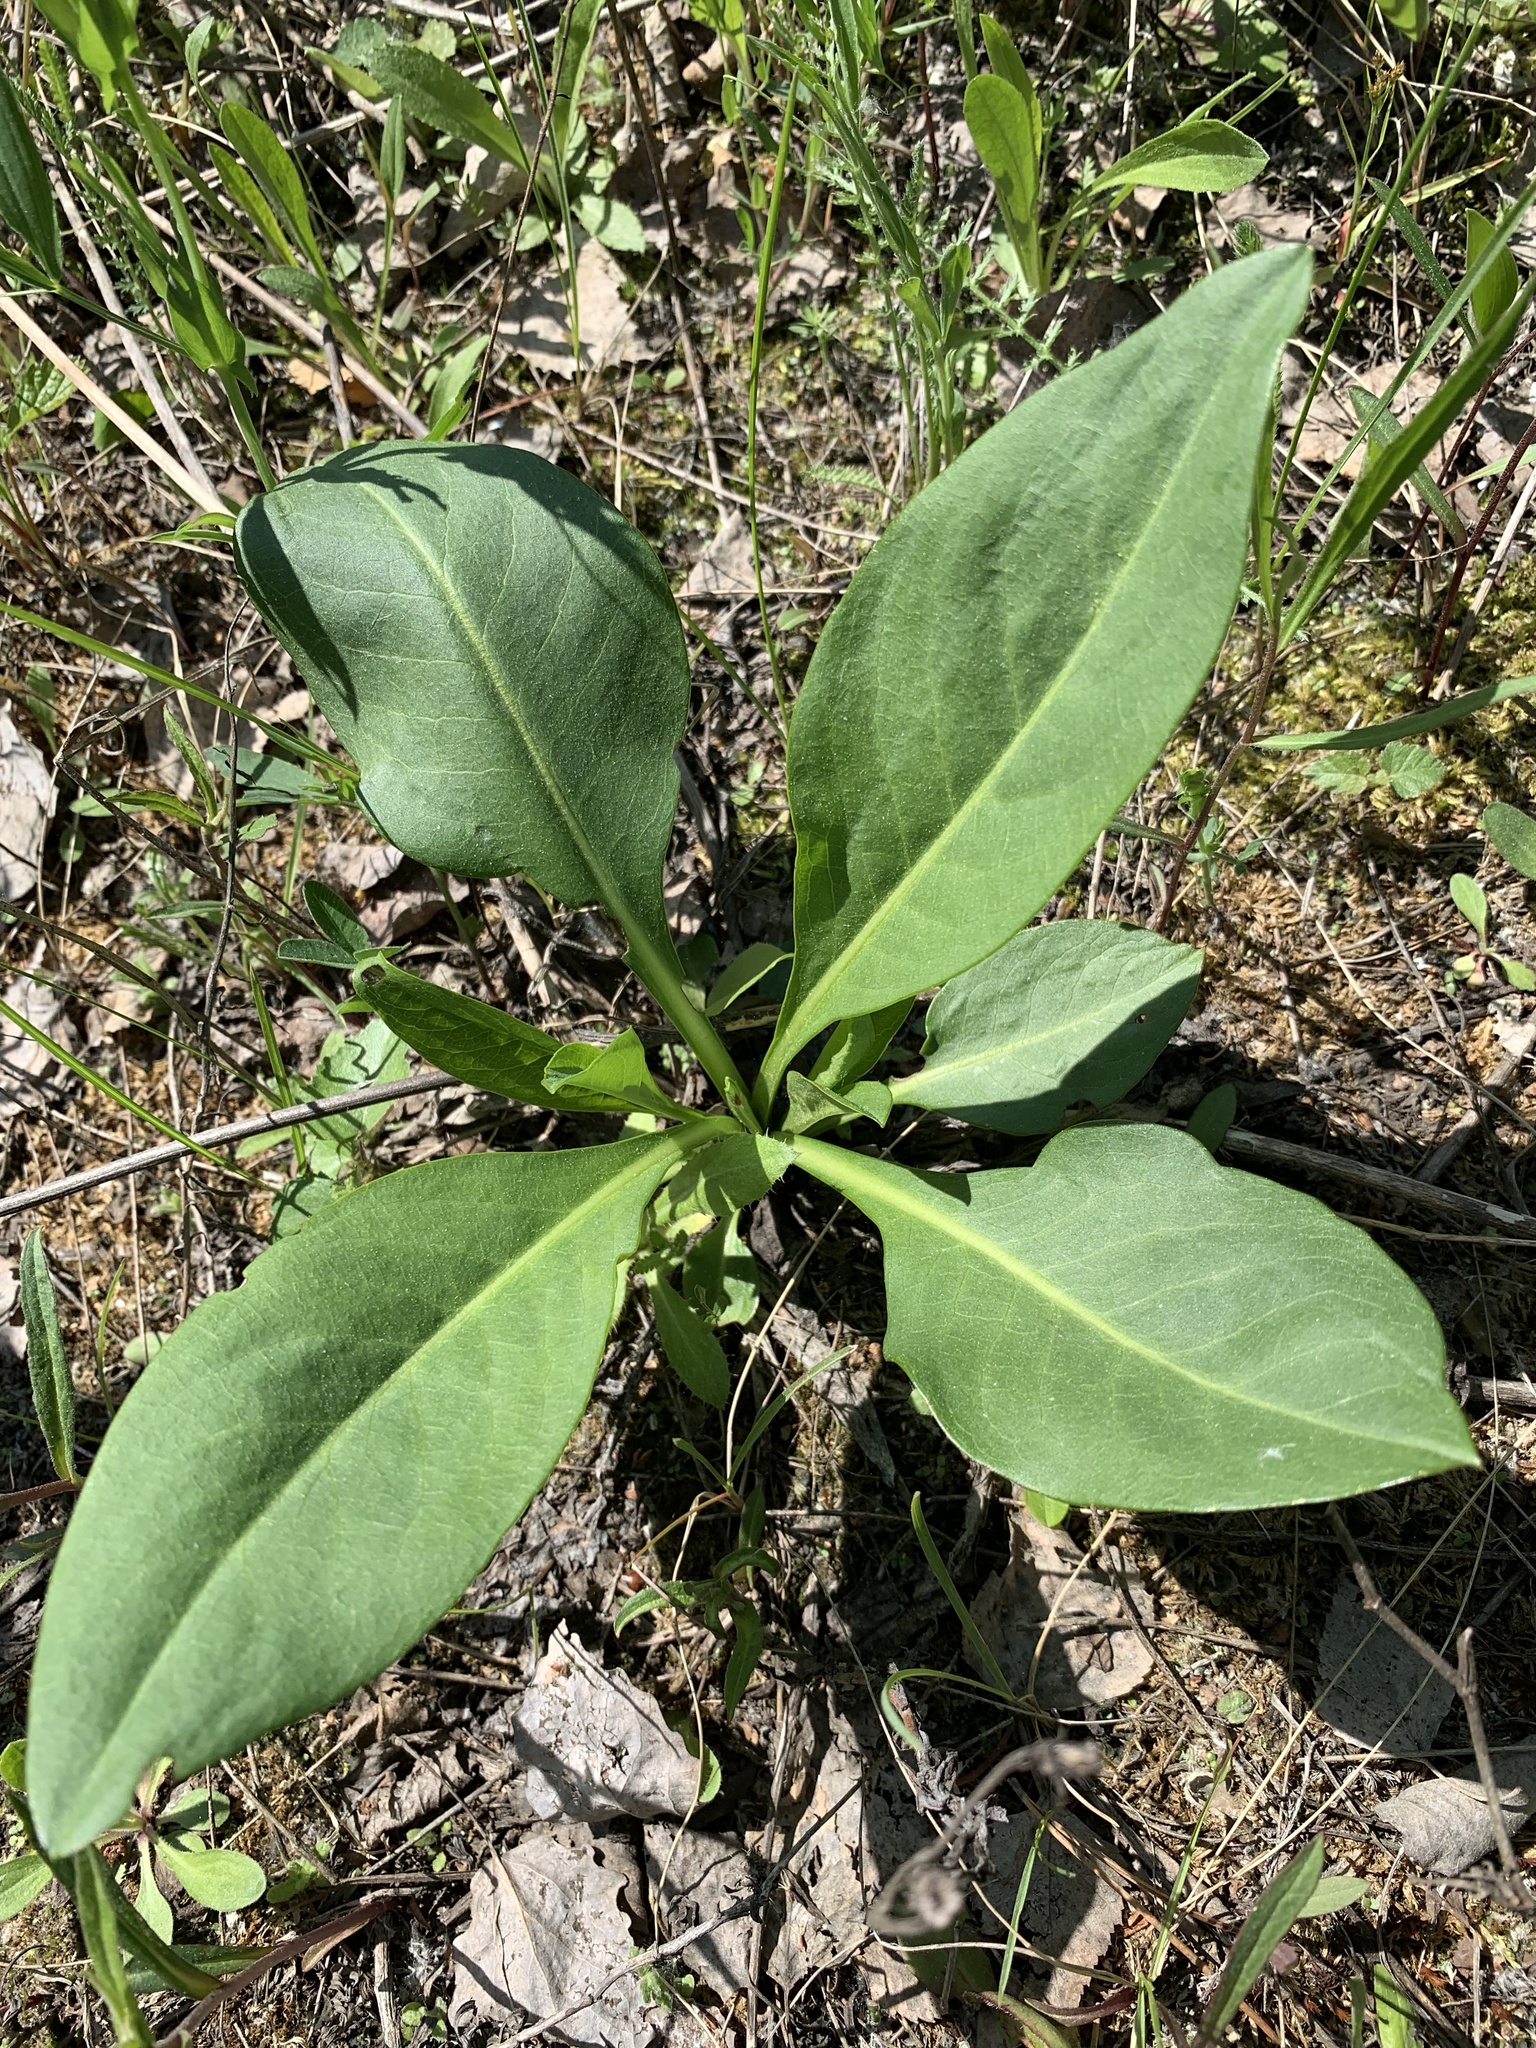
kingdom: Plantae
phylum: Tracheophyta
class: Magnoliopsida
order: Dipsacales
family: Caprifoliaceae
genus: Succisa
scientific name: Succisa pratensis
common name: Devil's-bit
